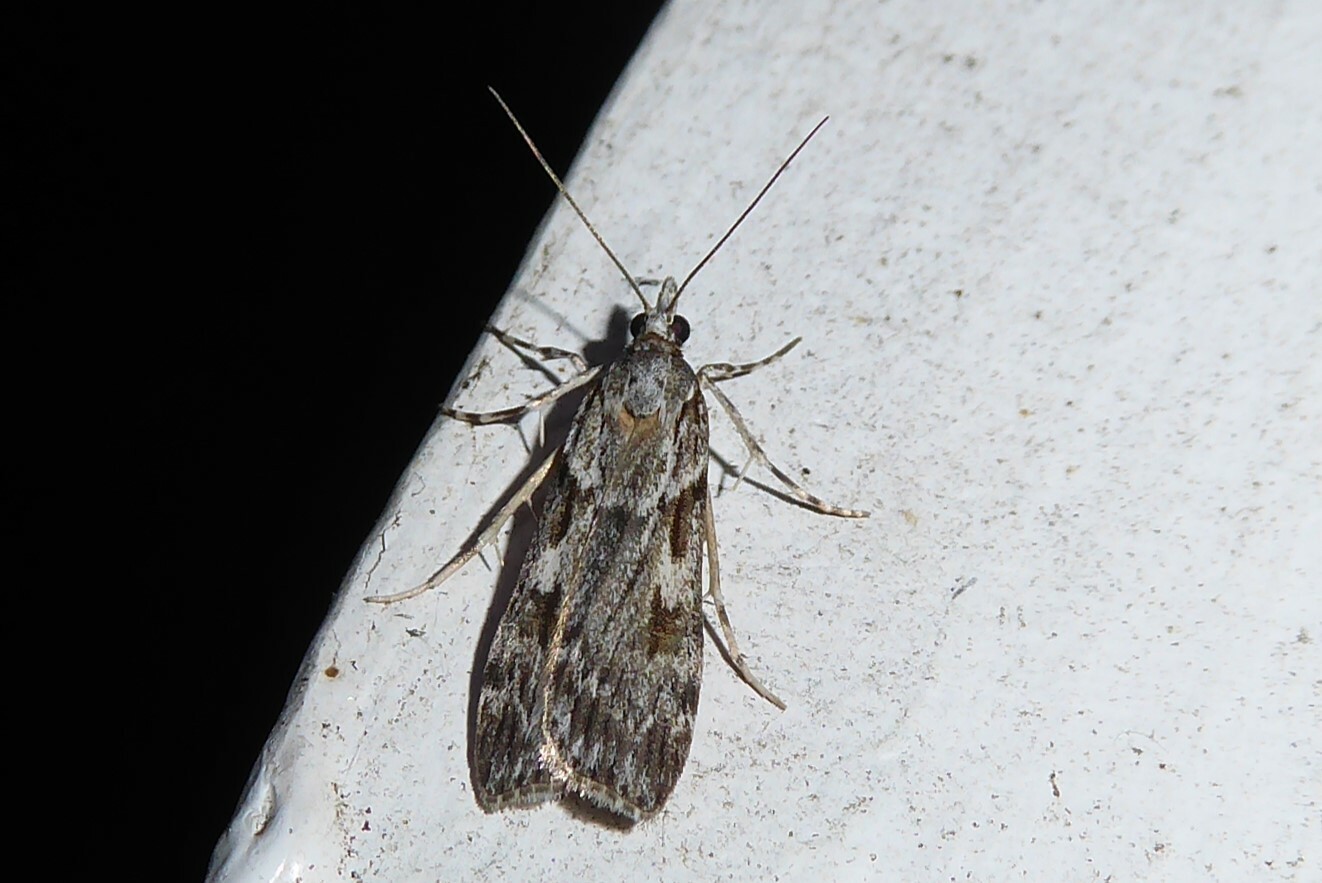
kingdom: Animalia
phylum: Arthropoda
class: Insecta
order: Lepidoptera
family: Crambidae
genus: Scoparia
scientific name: Scoparia halopis
